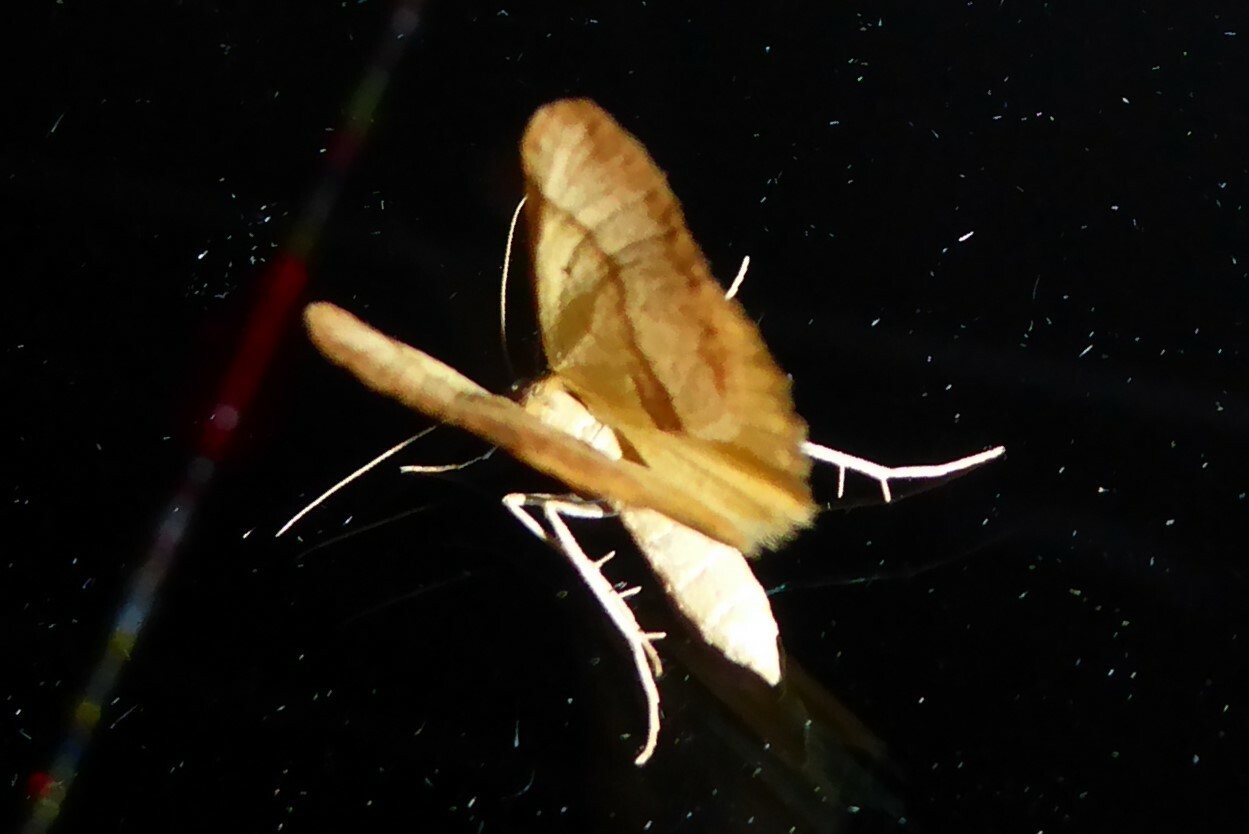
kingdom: Animalia
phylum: Arthropoda
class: Insecta
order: Lepidoptera
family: Geometridae
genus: Anachloris
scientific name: Anachloris subochraria
